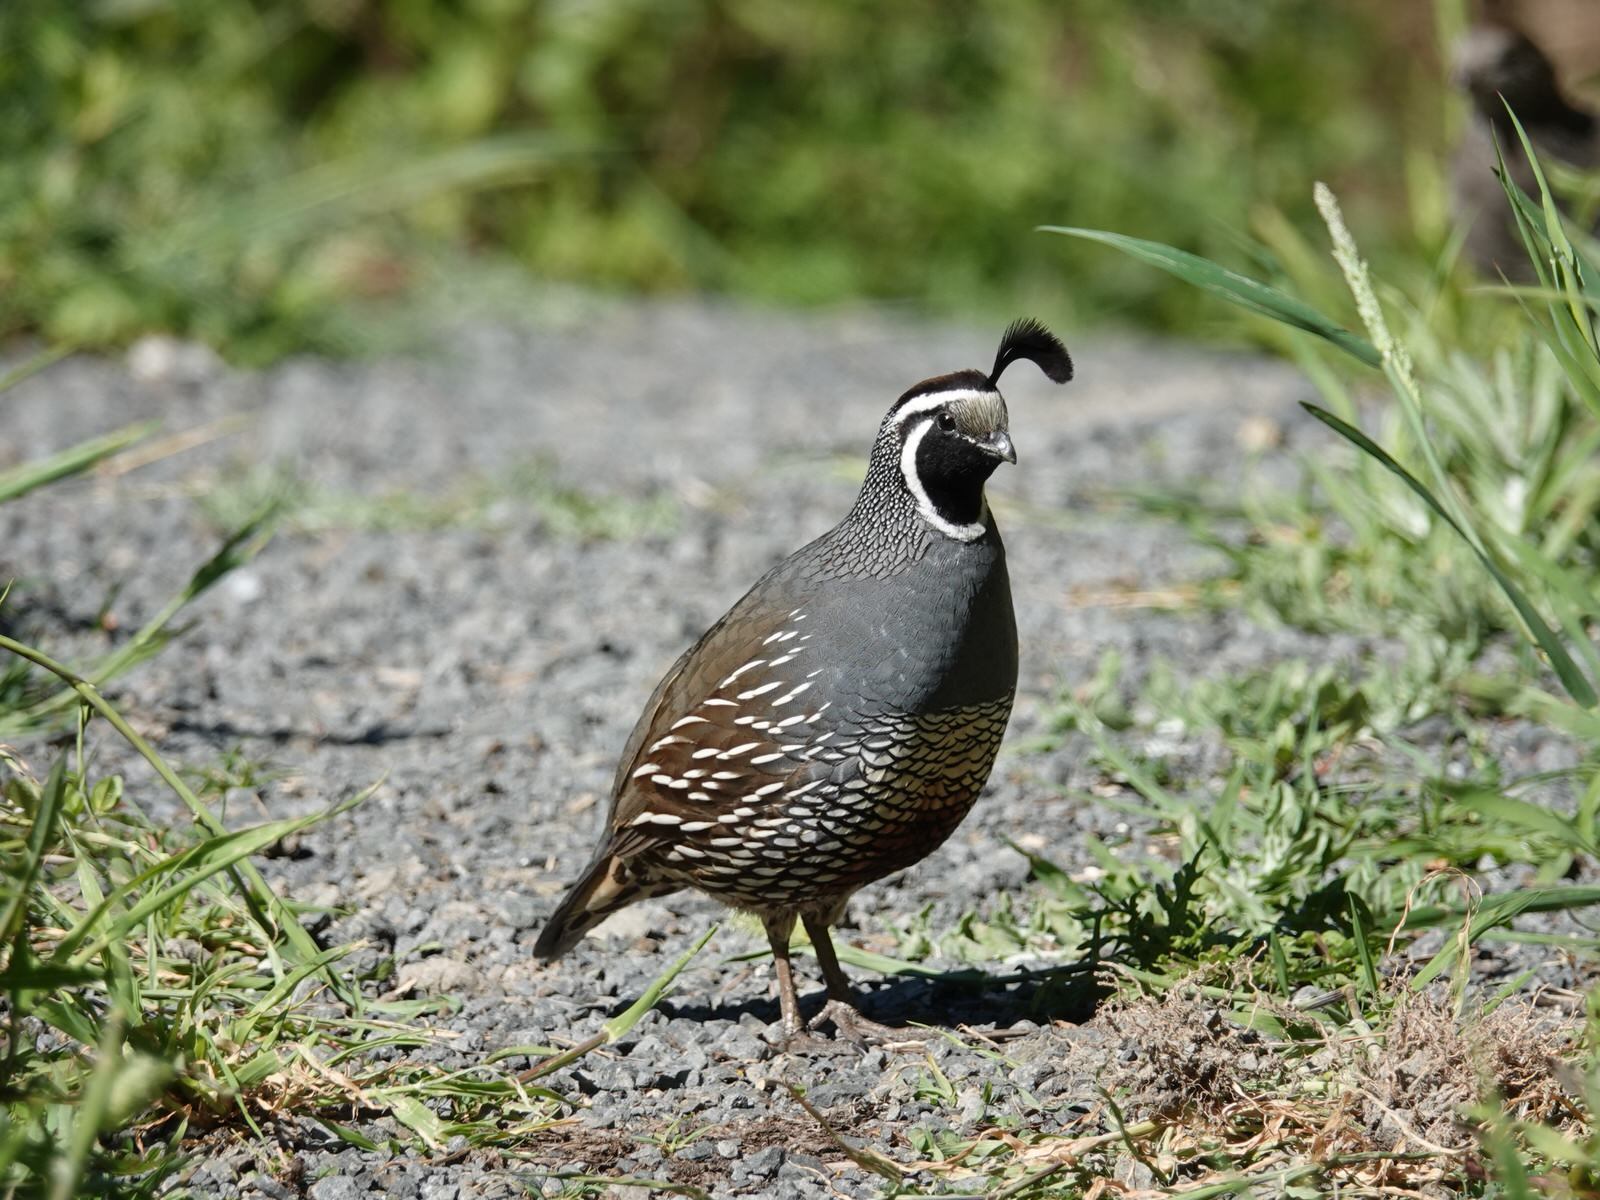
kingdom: Animalia
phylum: Chordata
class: Aves
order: Galliformes
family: Odontophoridae
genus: Callipepla
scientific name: Callipepla californica
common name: California quail
